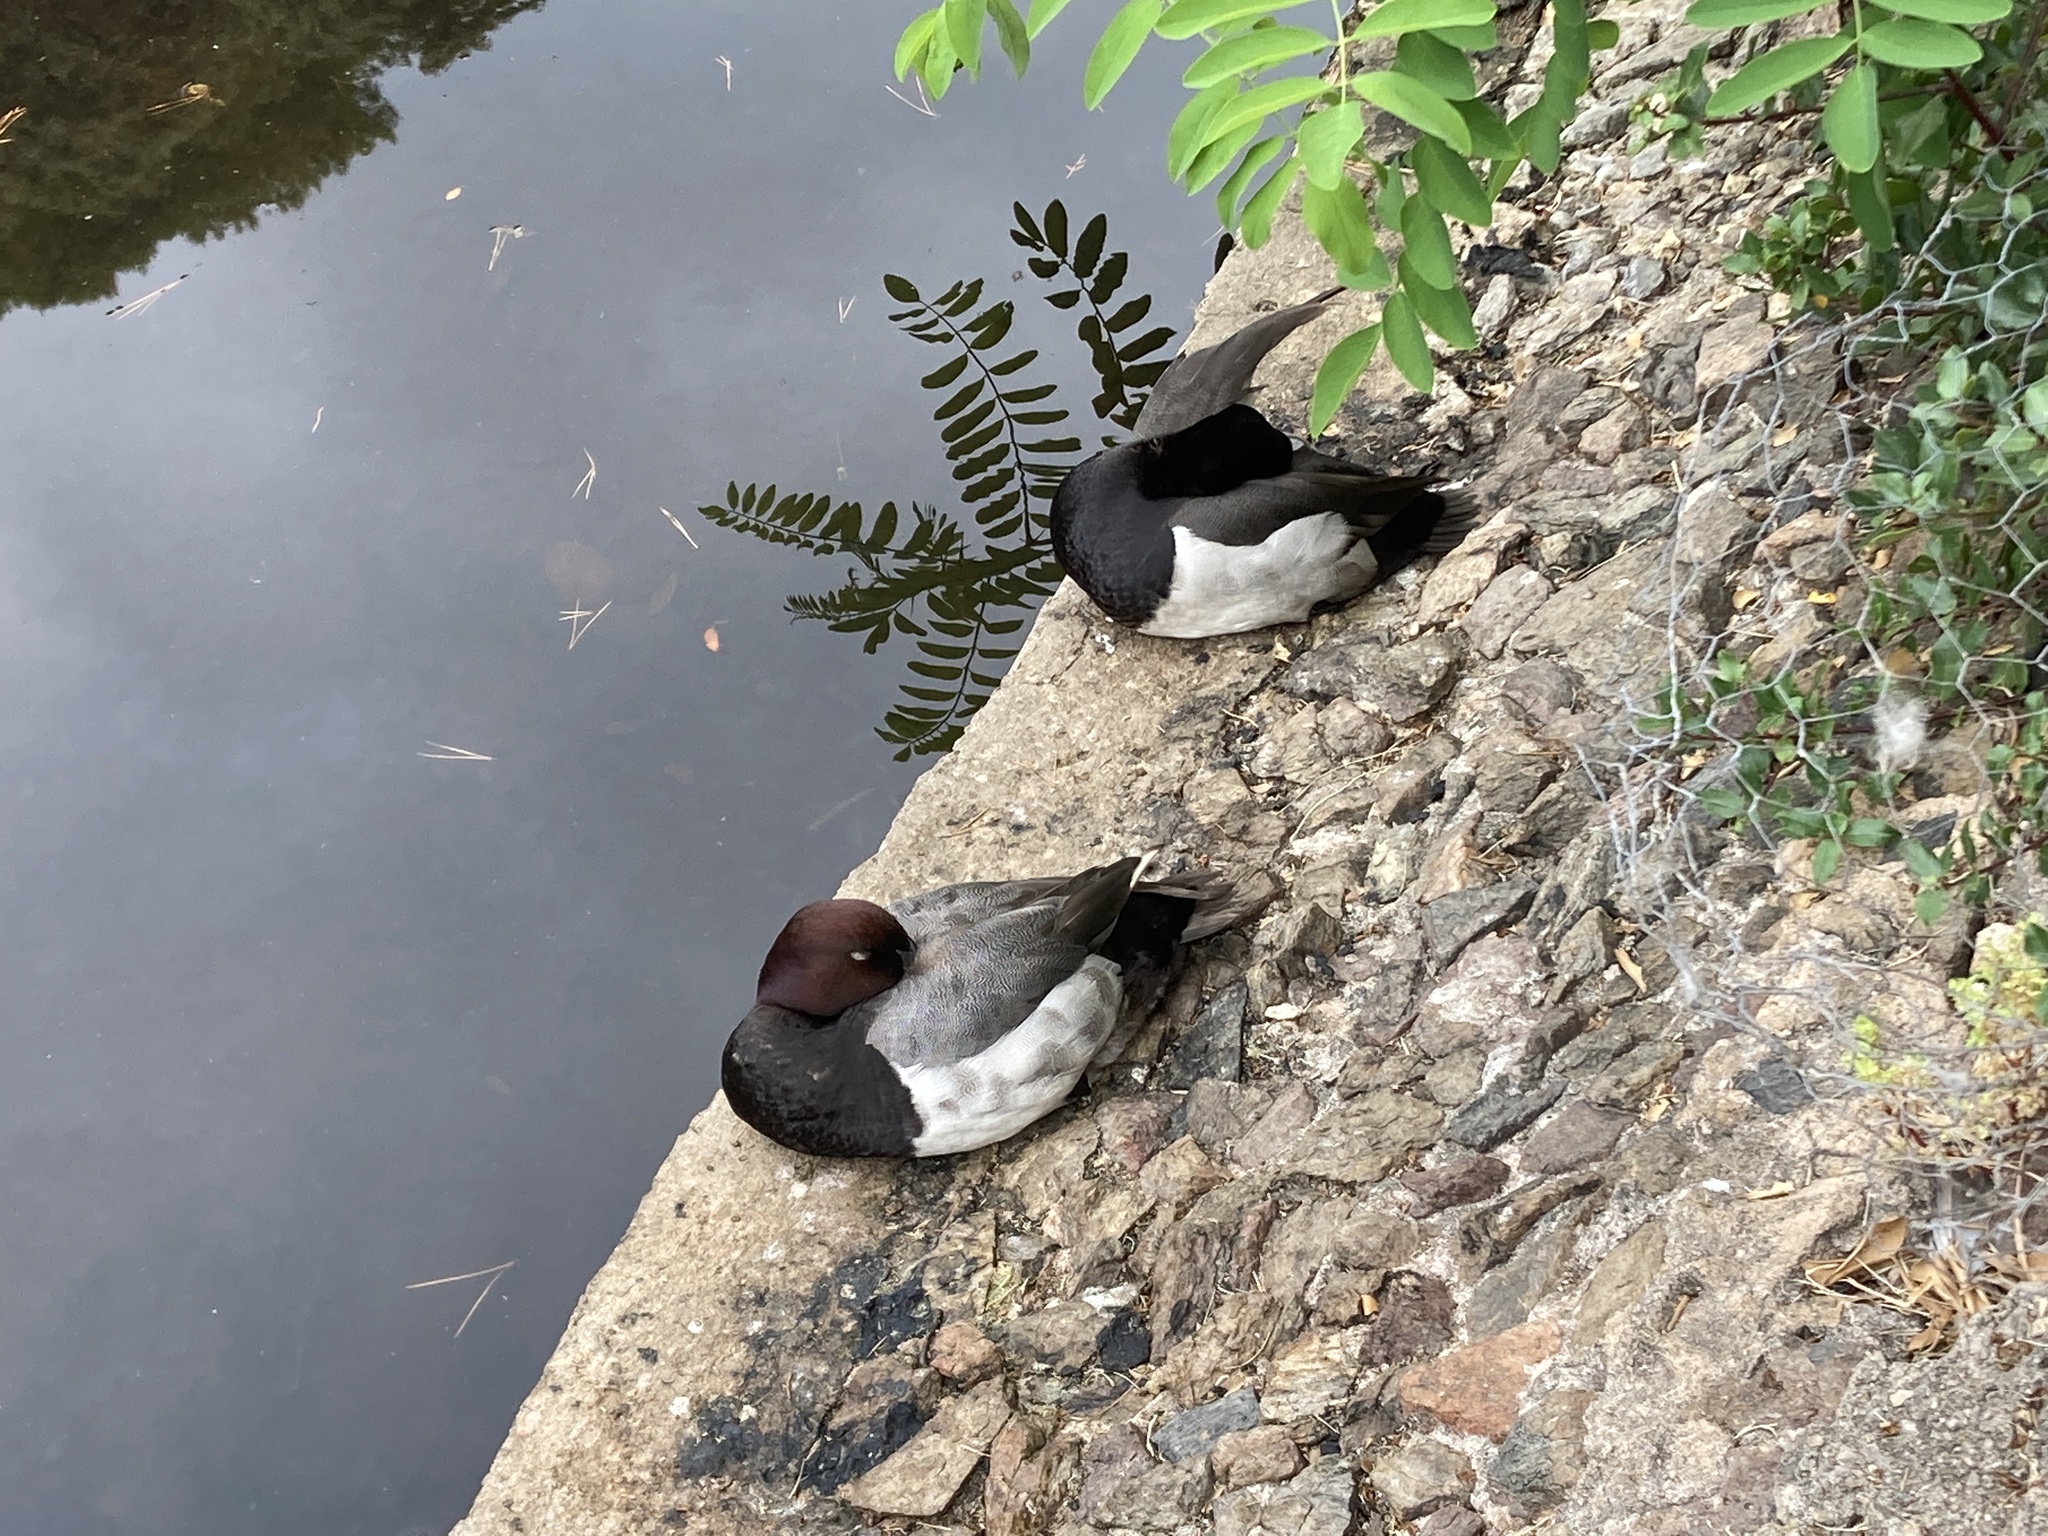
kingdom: Animalia
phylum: Chordata
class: Aves
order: Anseriformes
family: Anatidae
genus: Aythya
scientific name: Aythya fuligula
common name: Tufted duck
